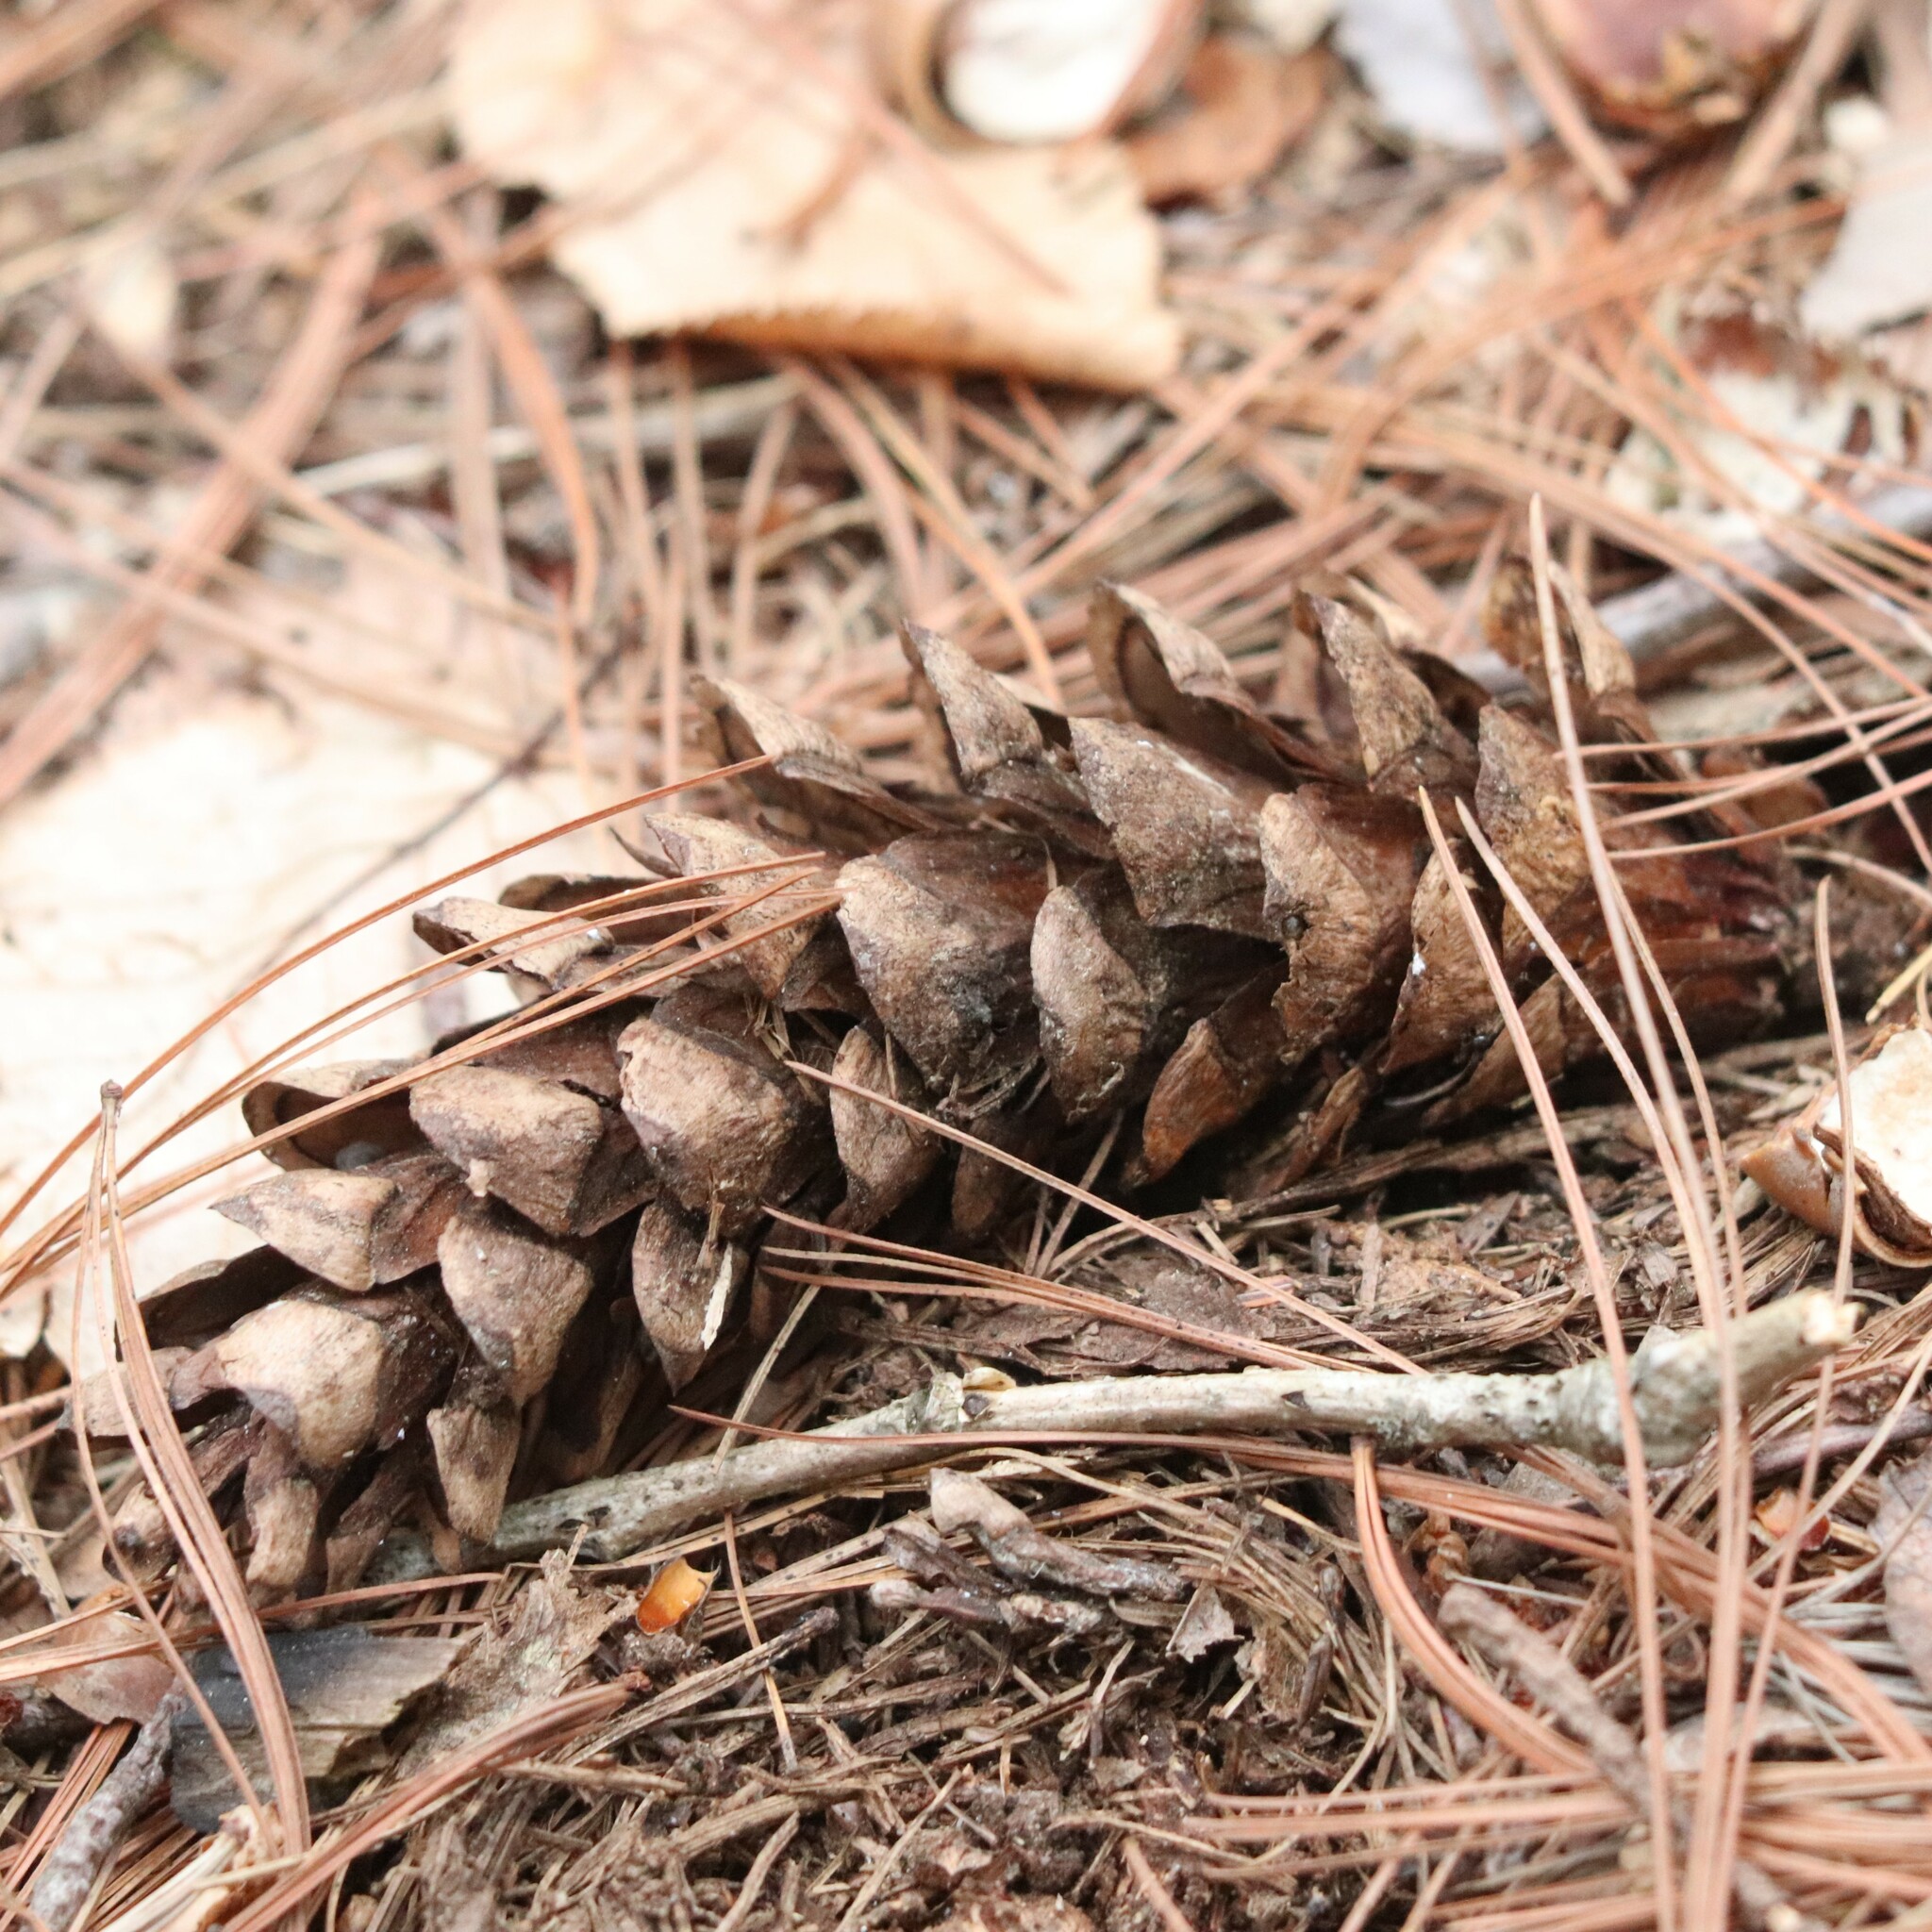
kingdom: Plantae
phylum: Tracheophyta
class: Pinopsida
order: Pinales
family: Pinaceae
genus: Pinus
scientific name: Pinus strobus
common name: Weymouth pine
